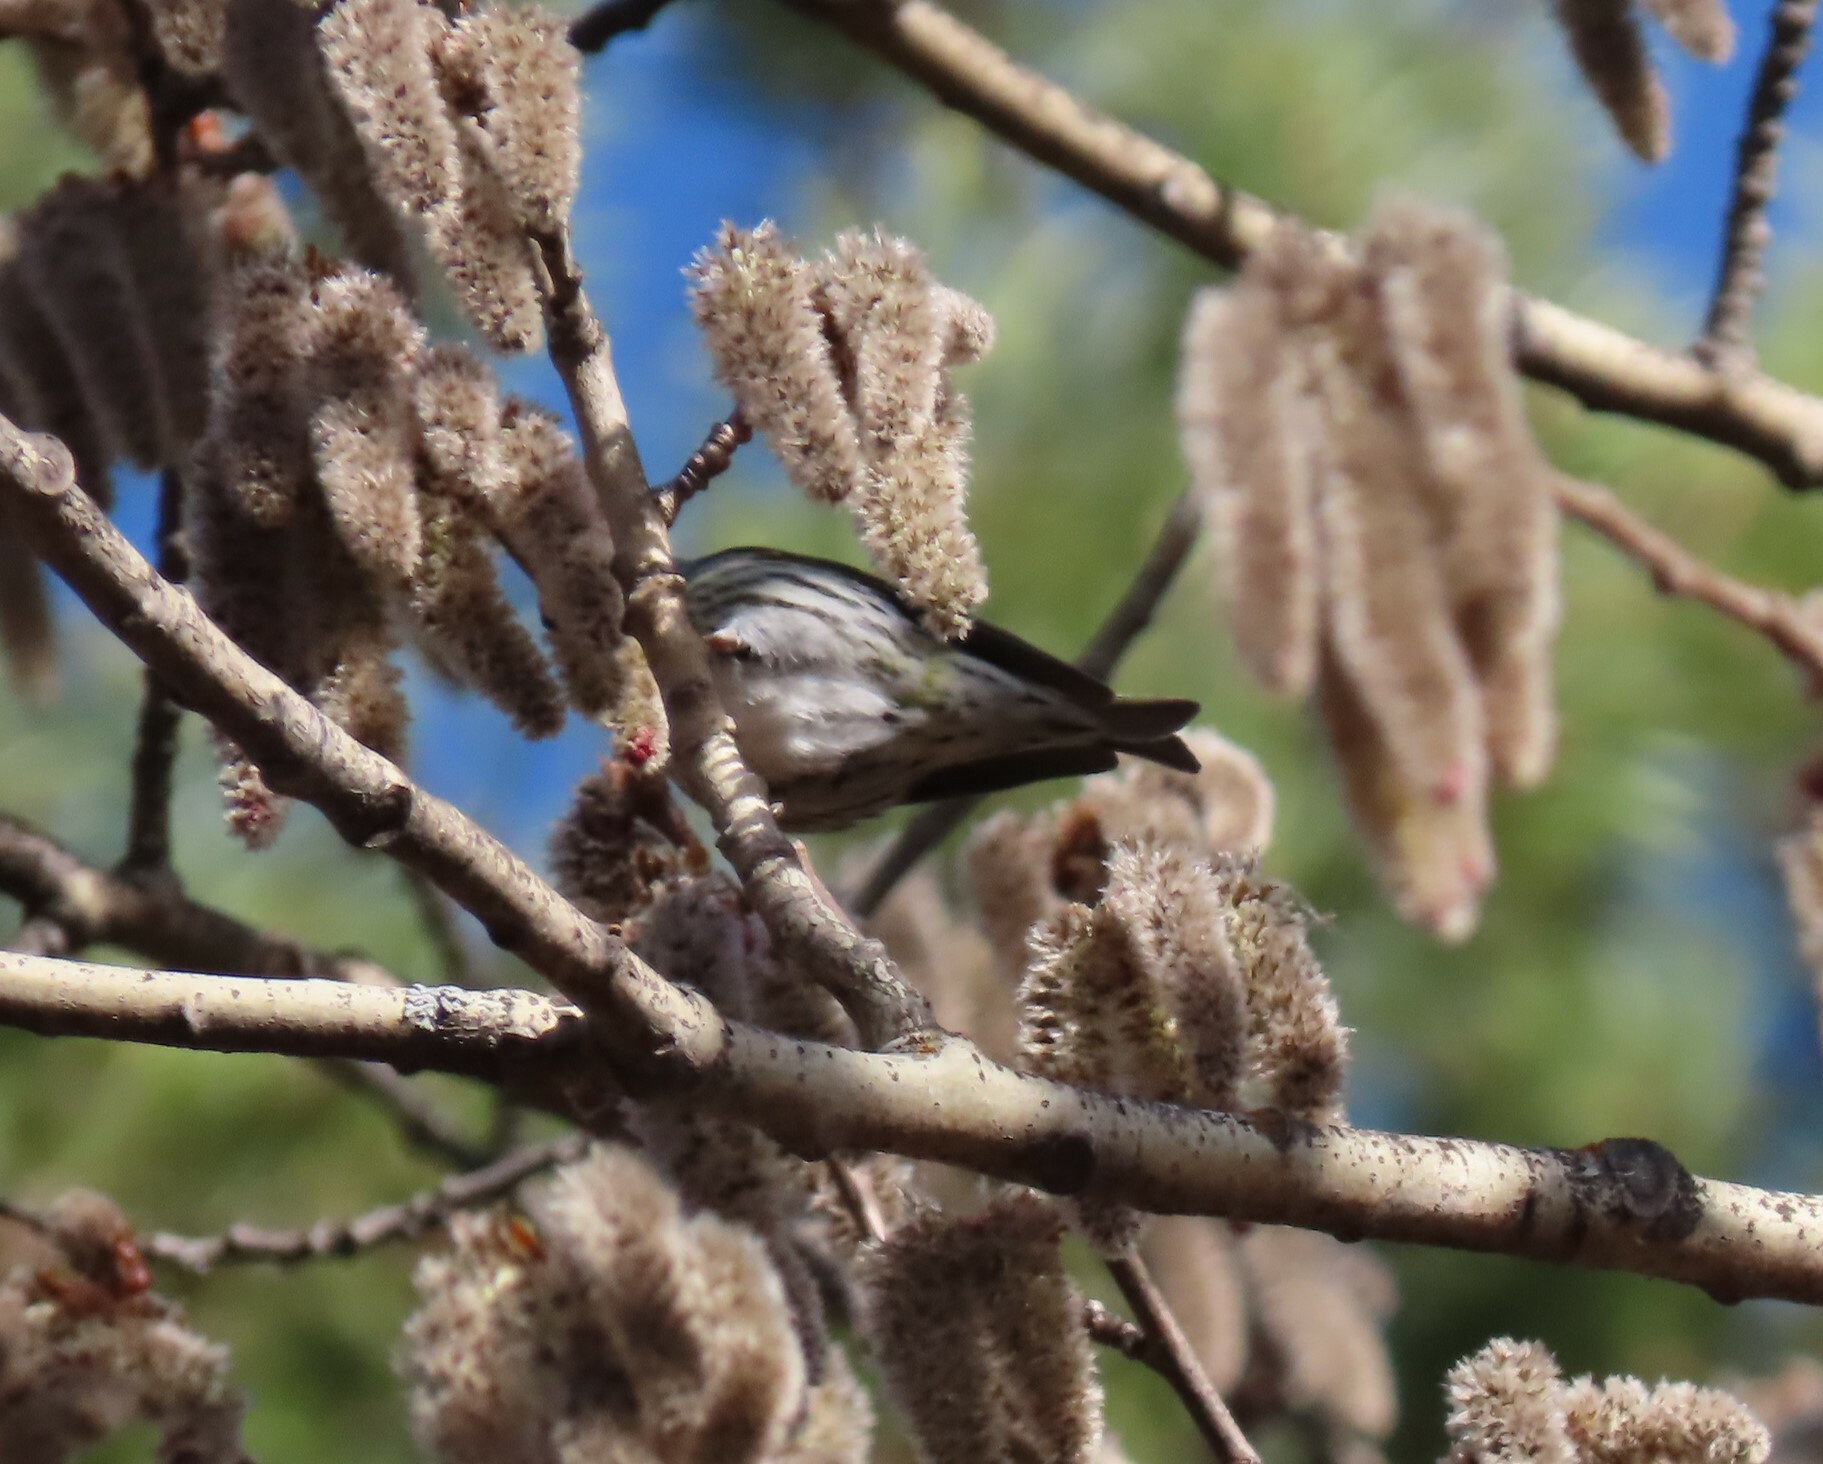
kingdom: Animalia
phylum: Chordata
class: Aves
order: Passeriformes
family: Fringillidae
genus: Spinus
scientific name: Spinus spinus
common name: Eurasian siskin
